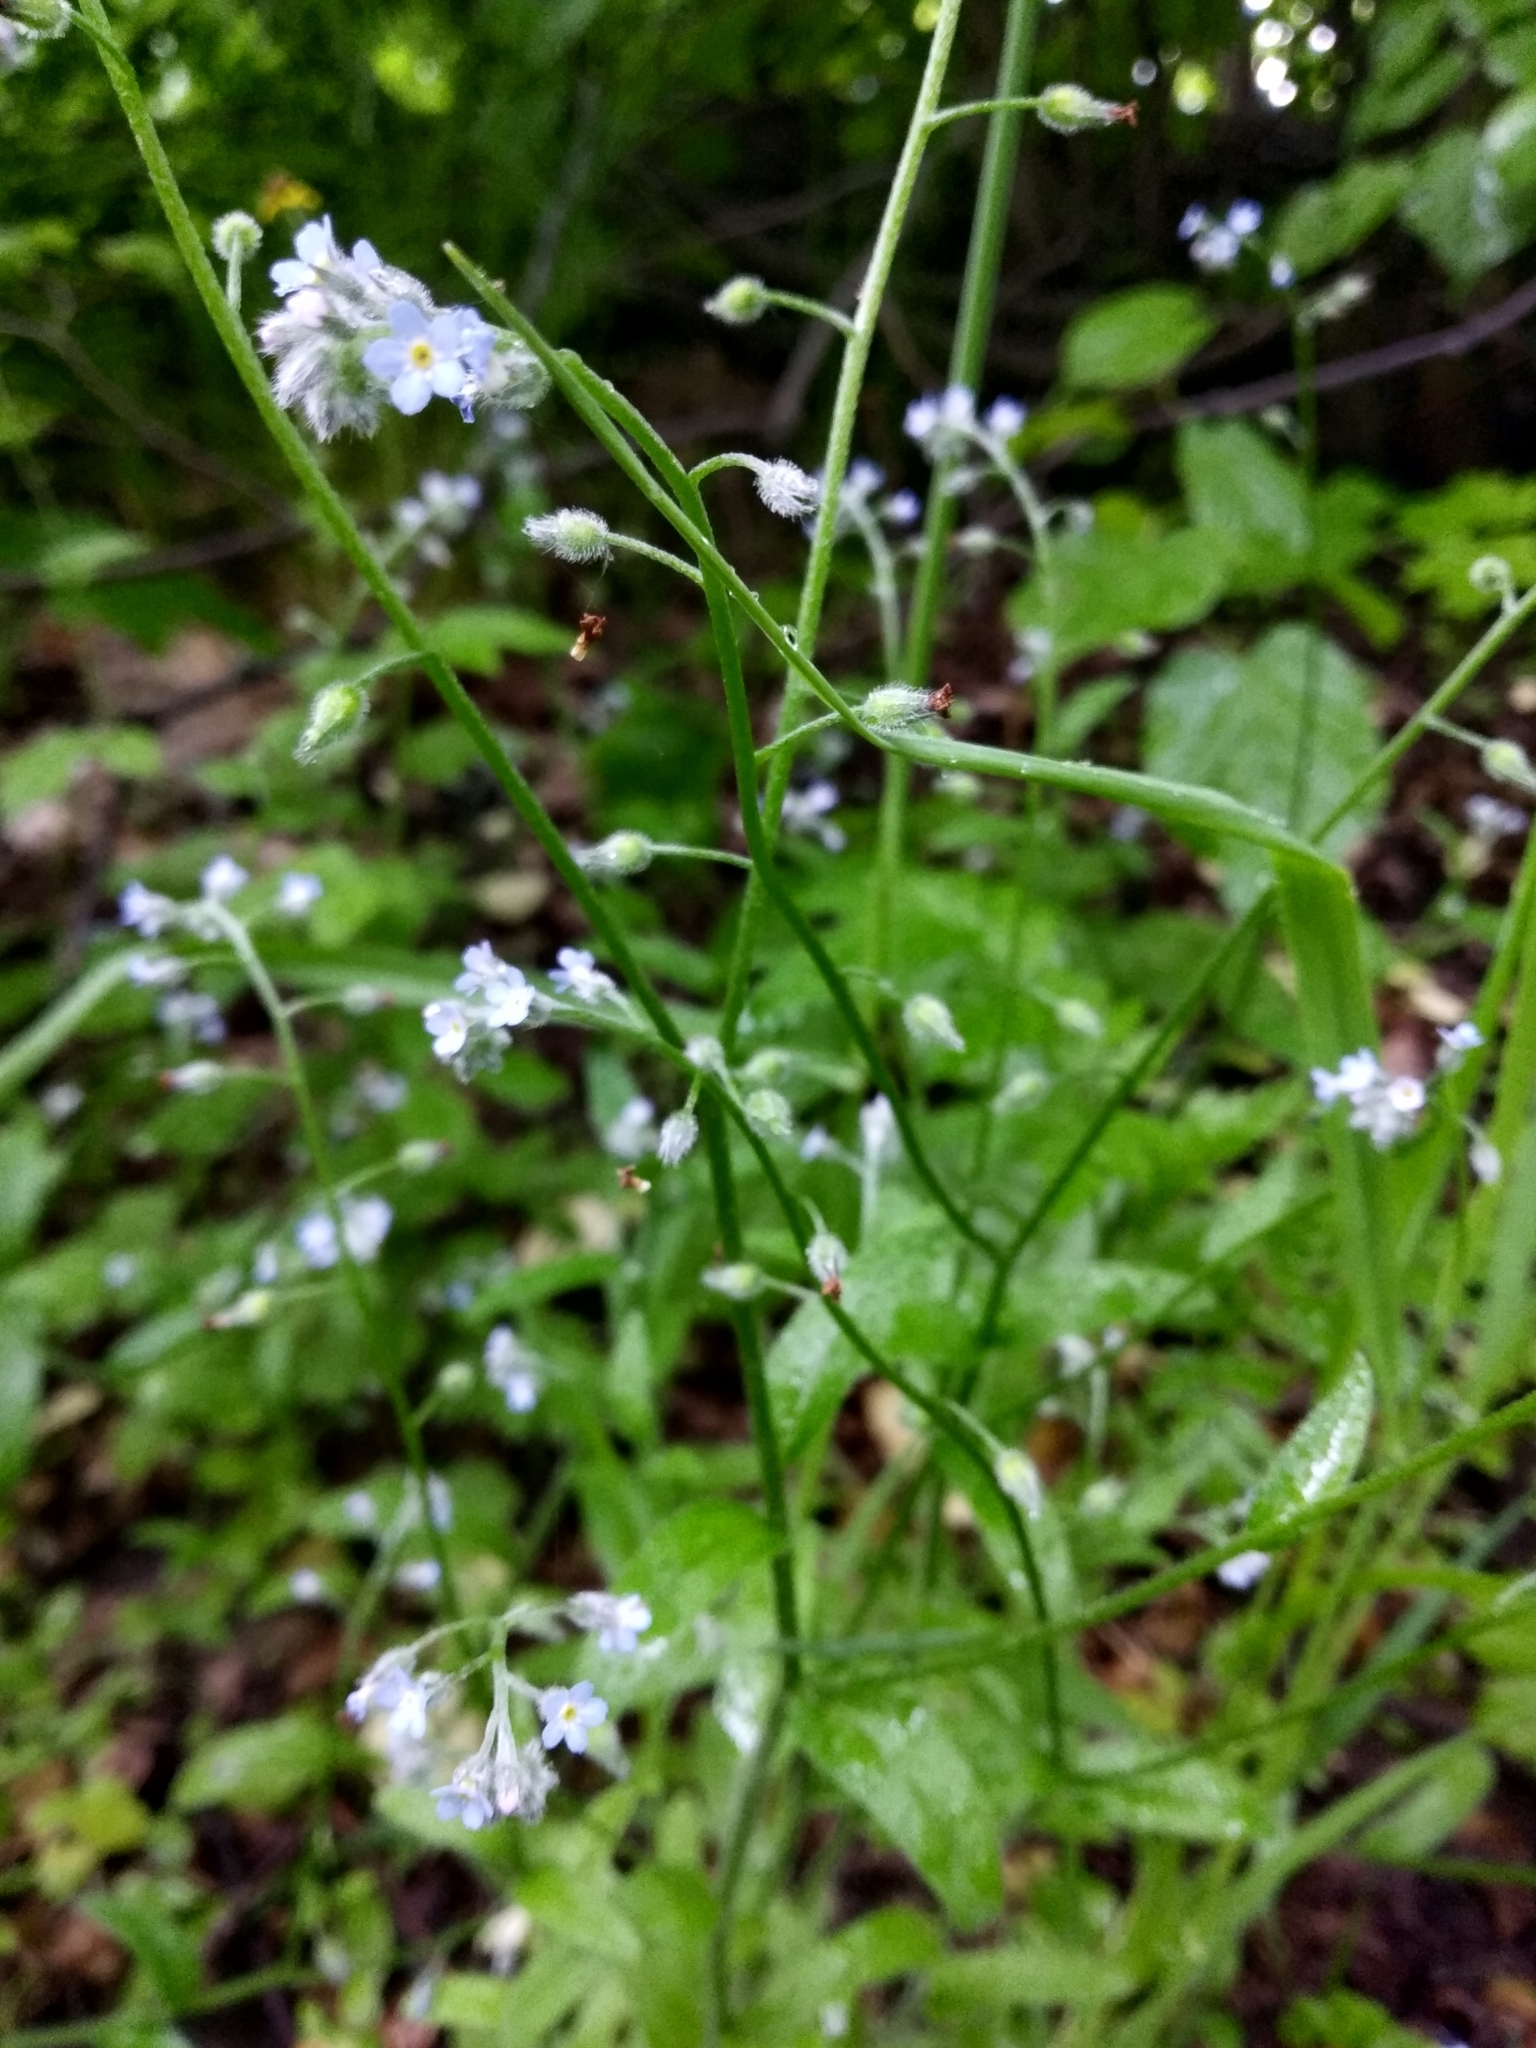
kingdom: Plantae
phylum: Tracheophyta
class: Magnoliopsida
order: Boraginales
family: Boraginaceae
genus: Myosotis
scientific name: Myosotis arvensis
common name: Field forget-me-not
